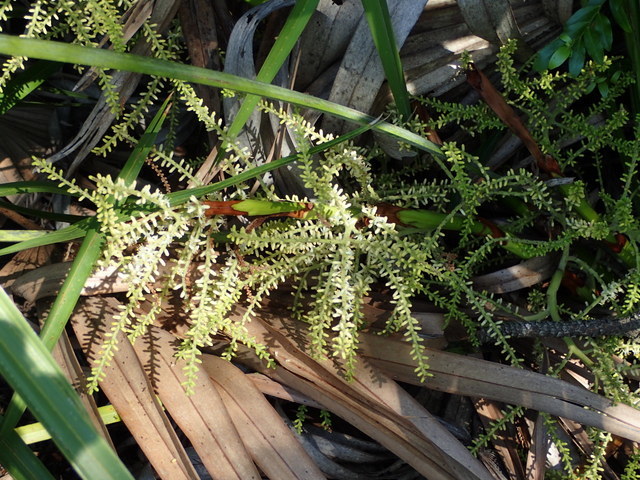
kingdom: Plantae
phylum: Tracheophyta
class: Liliopsida
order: Arecales
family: Arecaceae
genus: Serenoa
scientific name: Serenoa repens
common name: Saw-palmetto
